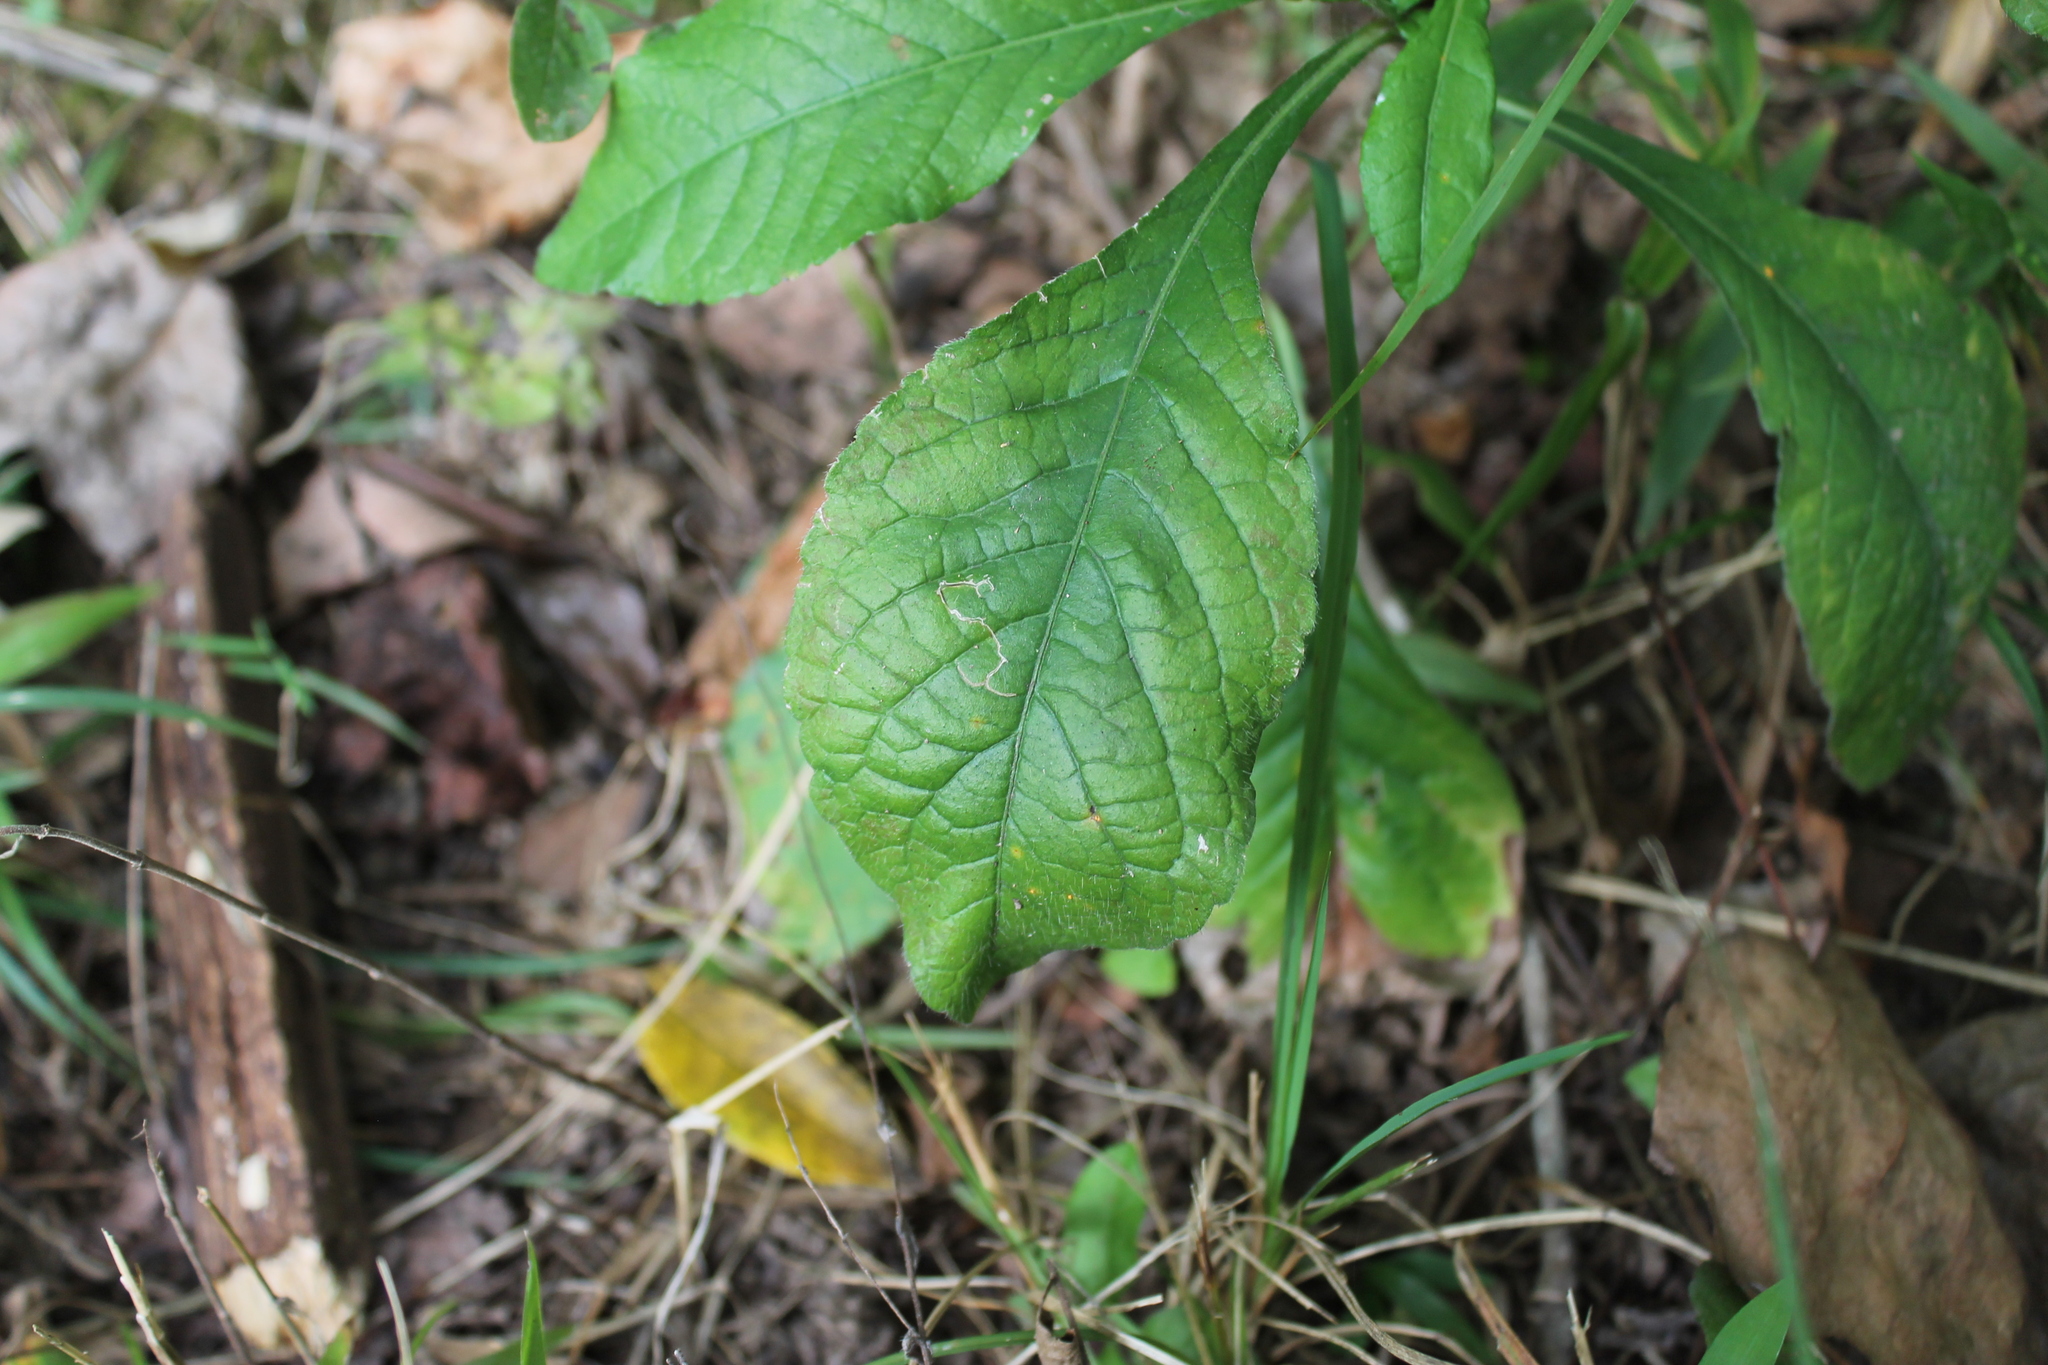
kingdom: Plantae
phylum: Tracheophyta
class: Magnoliopsida
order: Asterales
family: Asteraceae
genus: Elephantopus
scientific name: Elephantopus carolinianus
